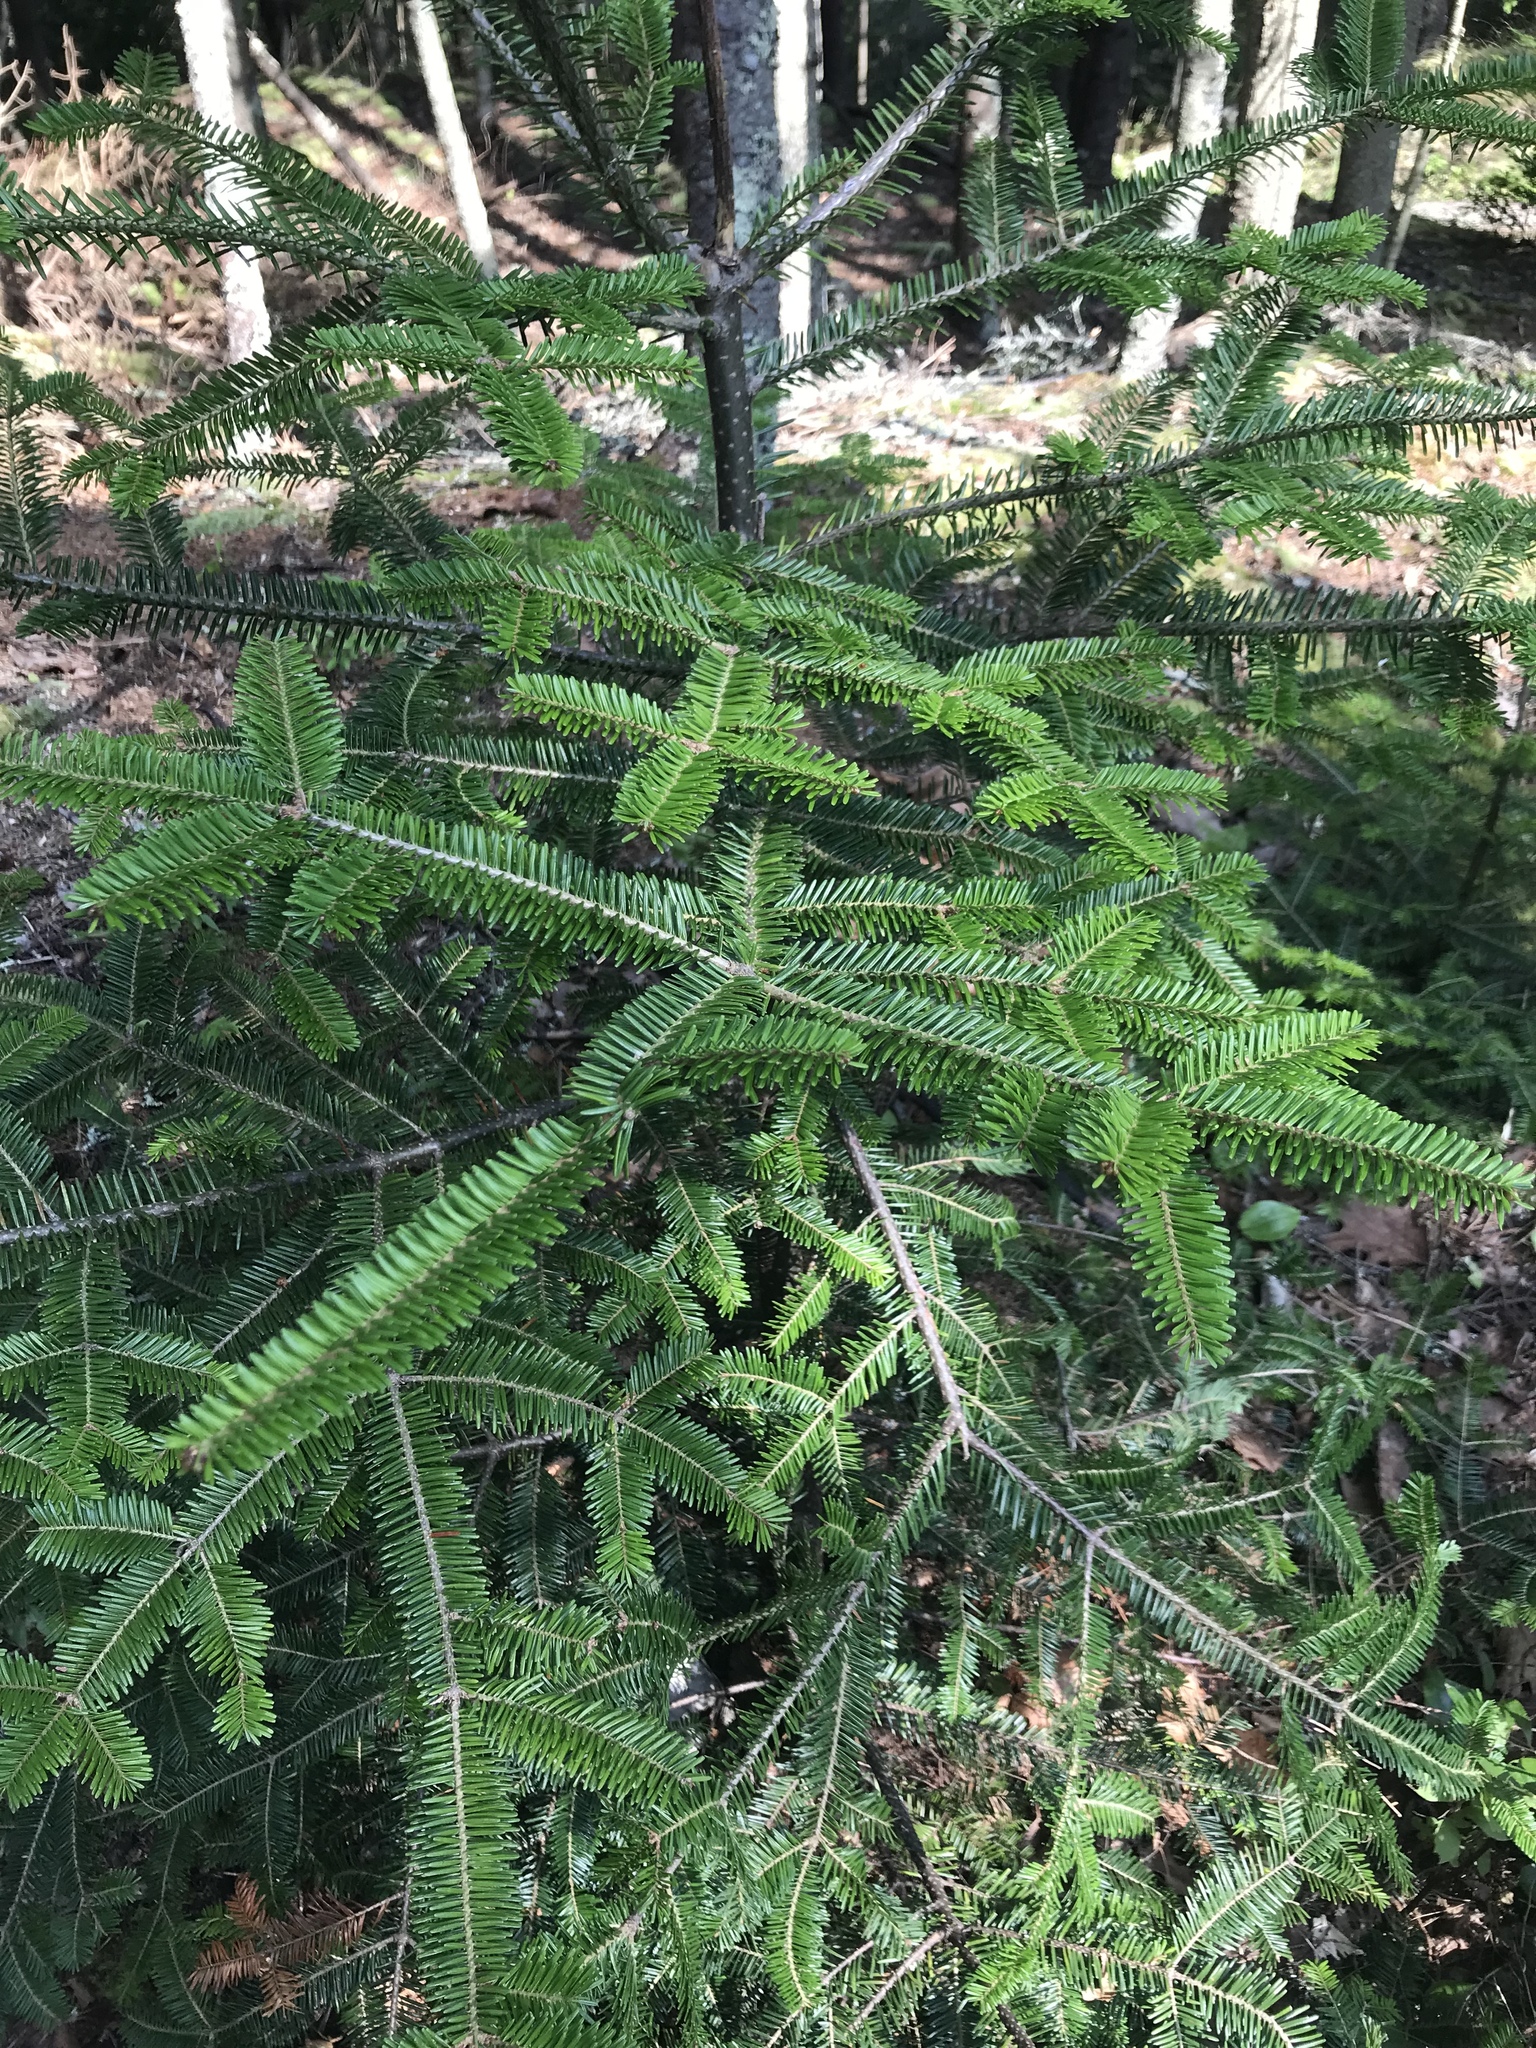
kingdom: Plantae
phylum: Tracheophyta
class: Pinopsida
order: Pinales
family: Pinaceae
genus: Abies
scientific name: Abies balsamea
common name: Balsam fir
